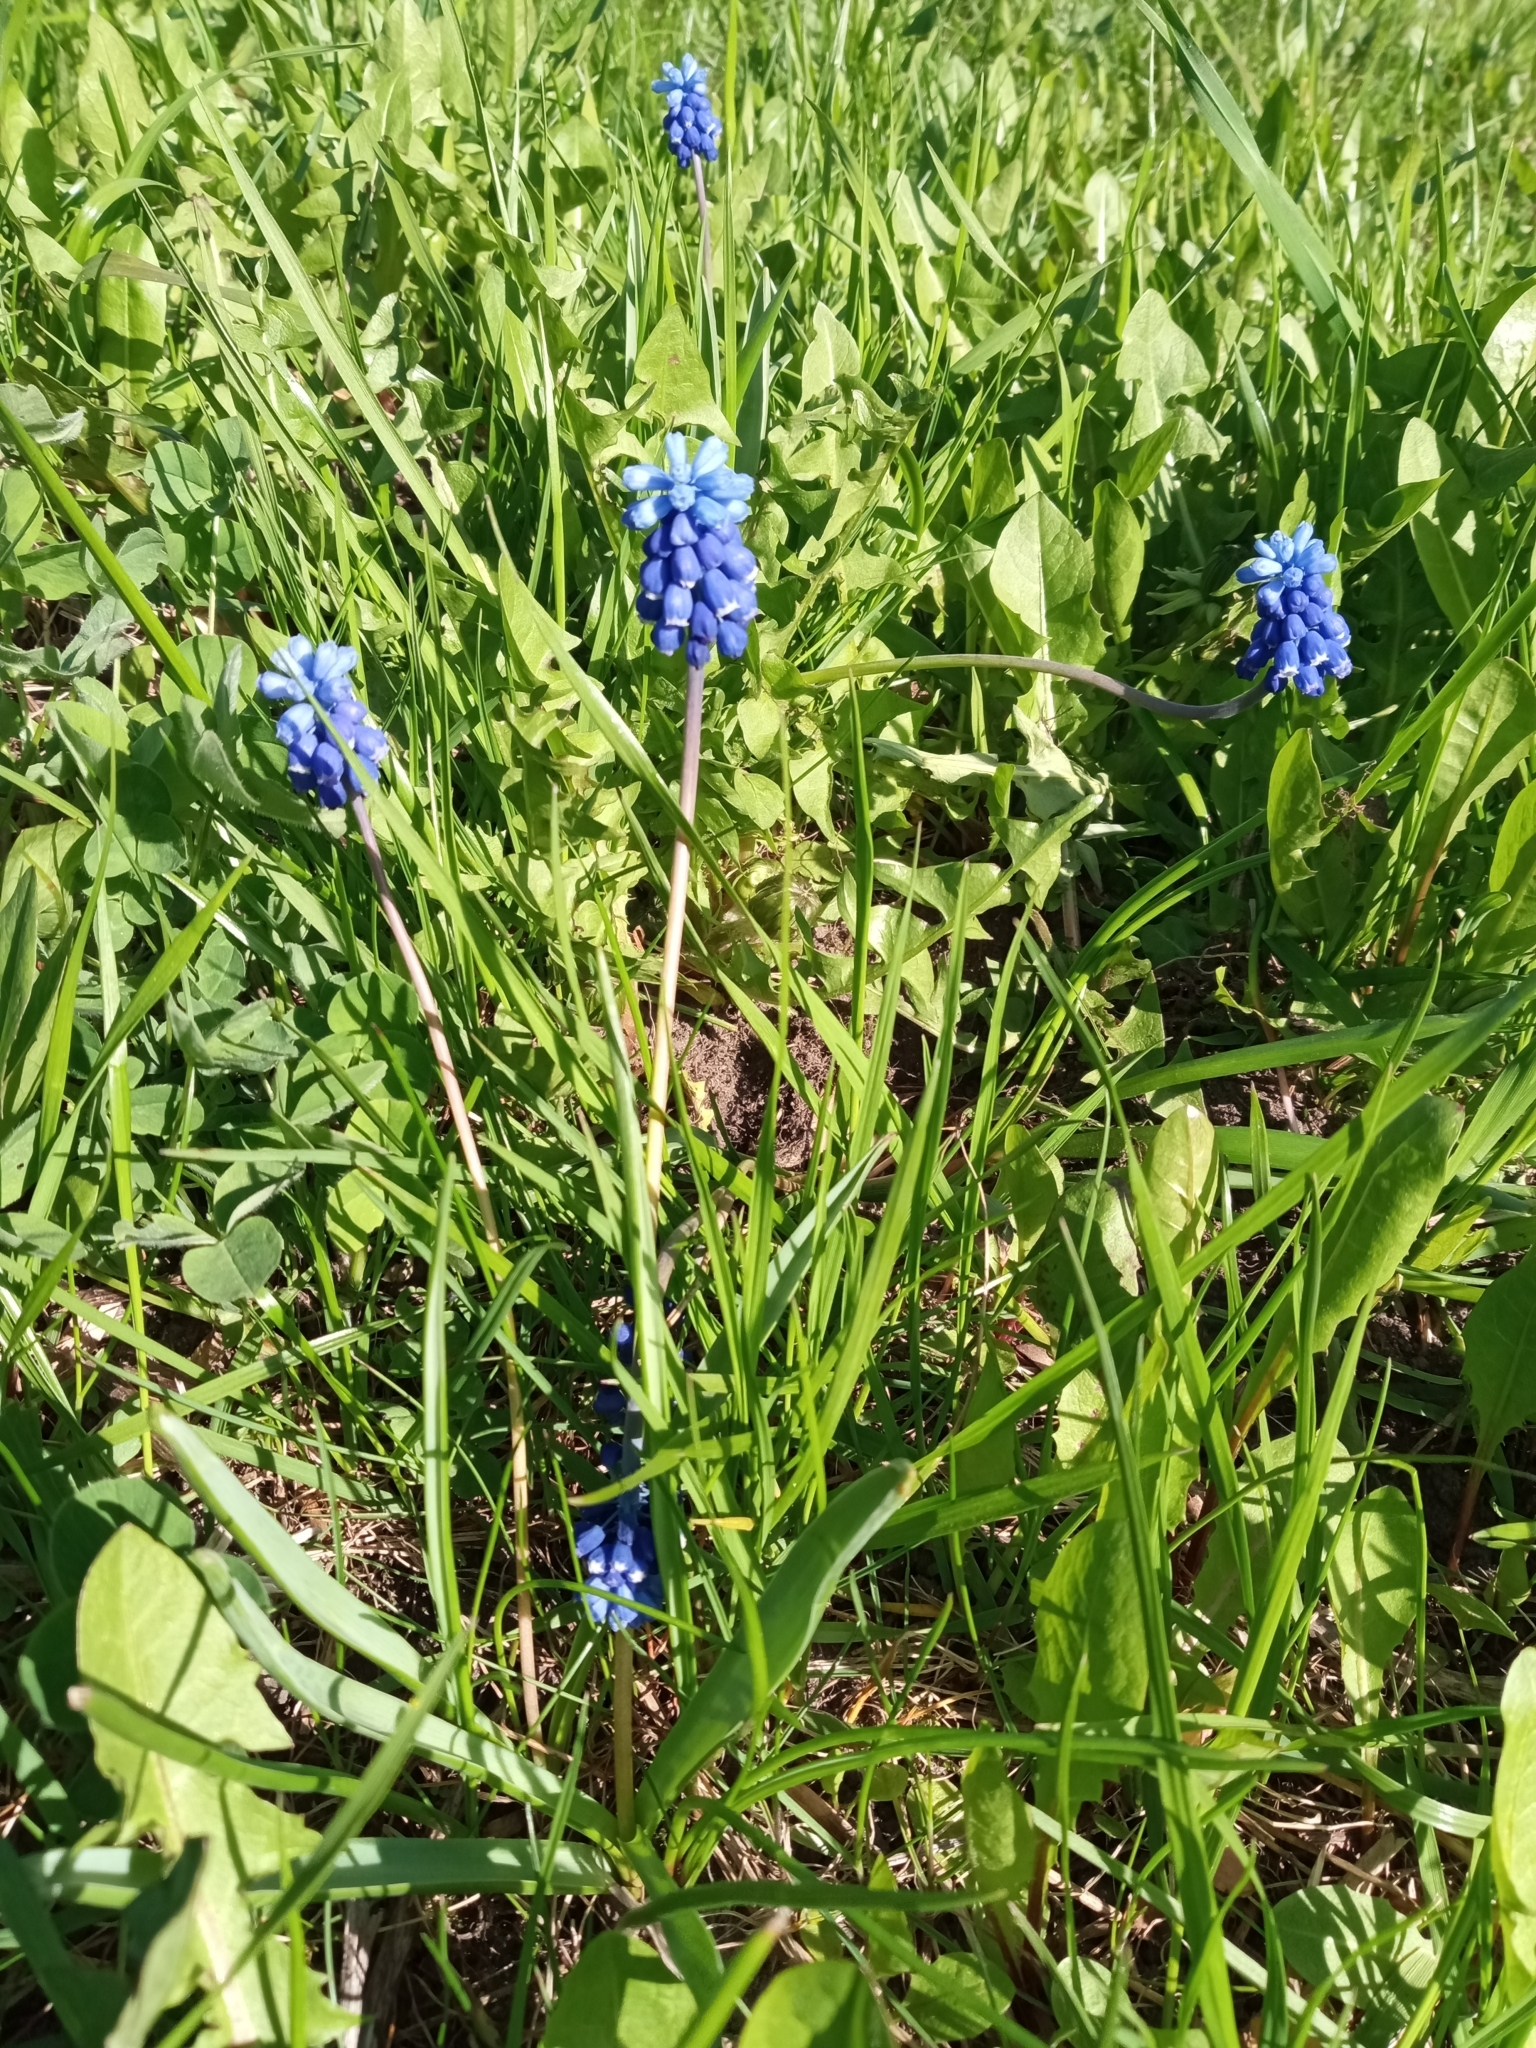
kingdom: Plantae
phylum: Tracheophyta
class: Liliopsida
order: Asparagales
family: Asparagaceae
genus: Muscari
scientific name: Muscari botryoides
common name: Compact grape-hyacinth
